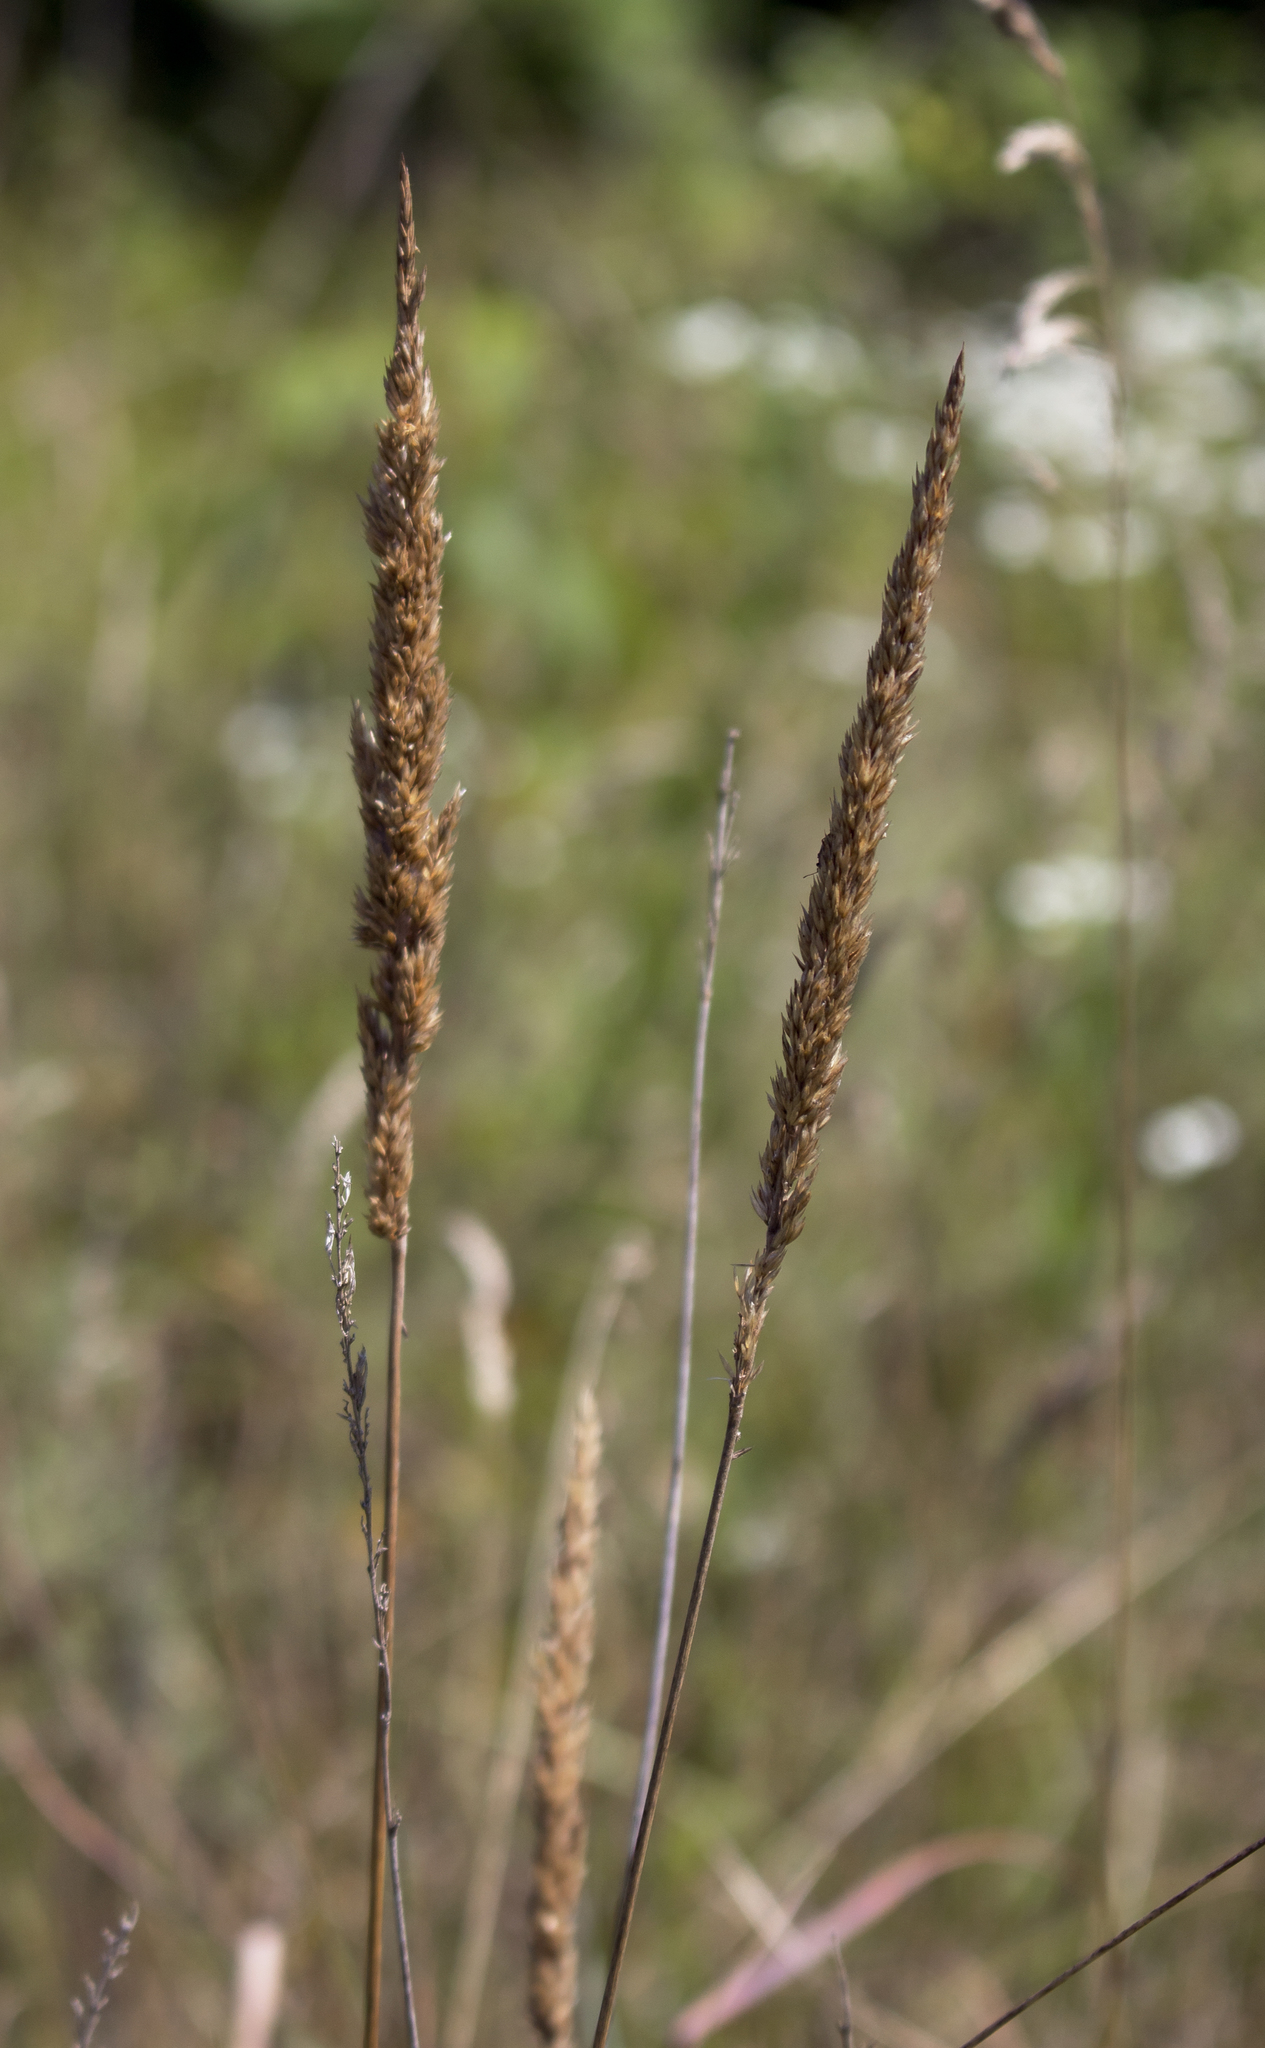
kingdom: Plantae
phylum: Tracheophyta
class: Liliopsida
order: Poales
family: Poaceae
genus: Koeleria
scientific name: Koeleria macrantha
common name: Crested hair-grass
